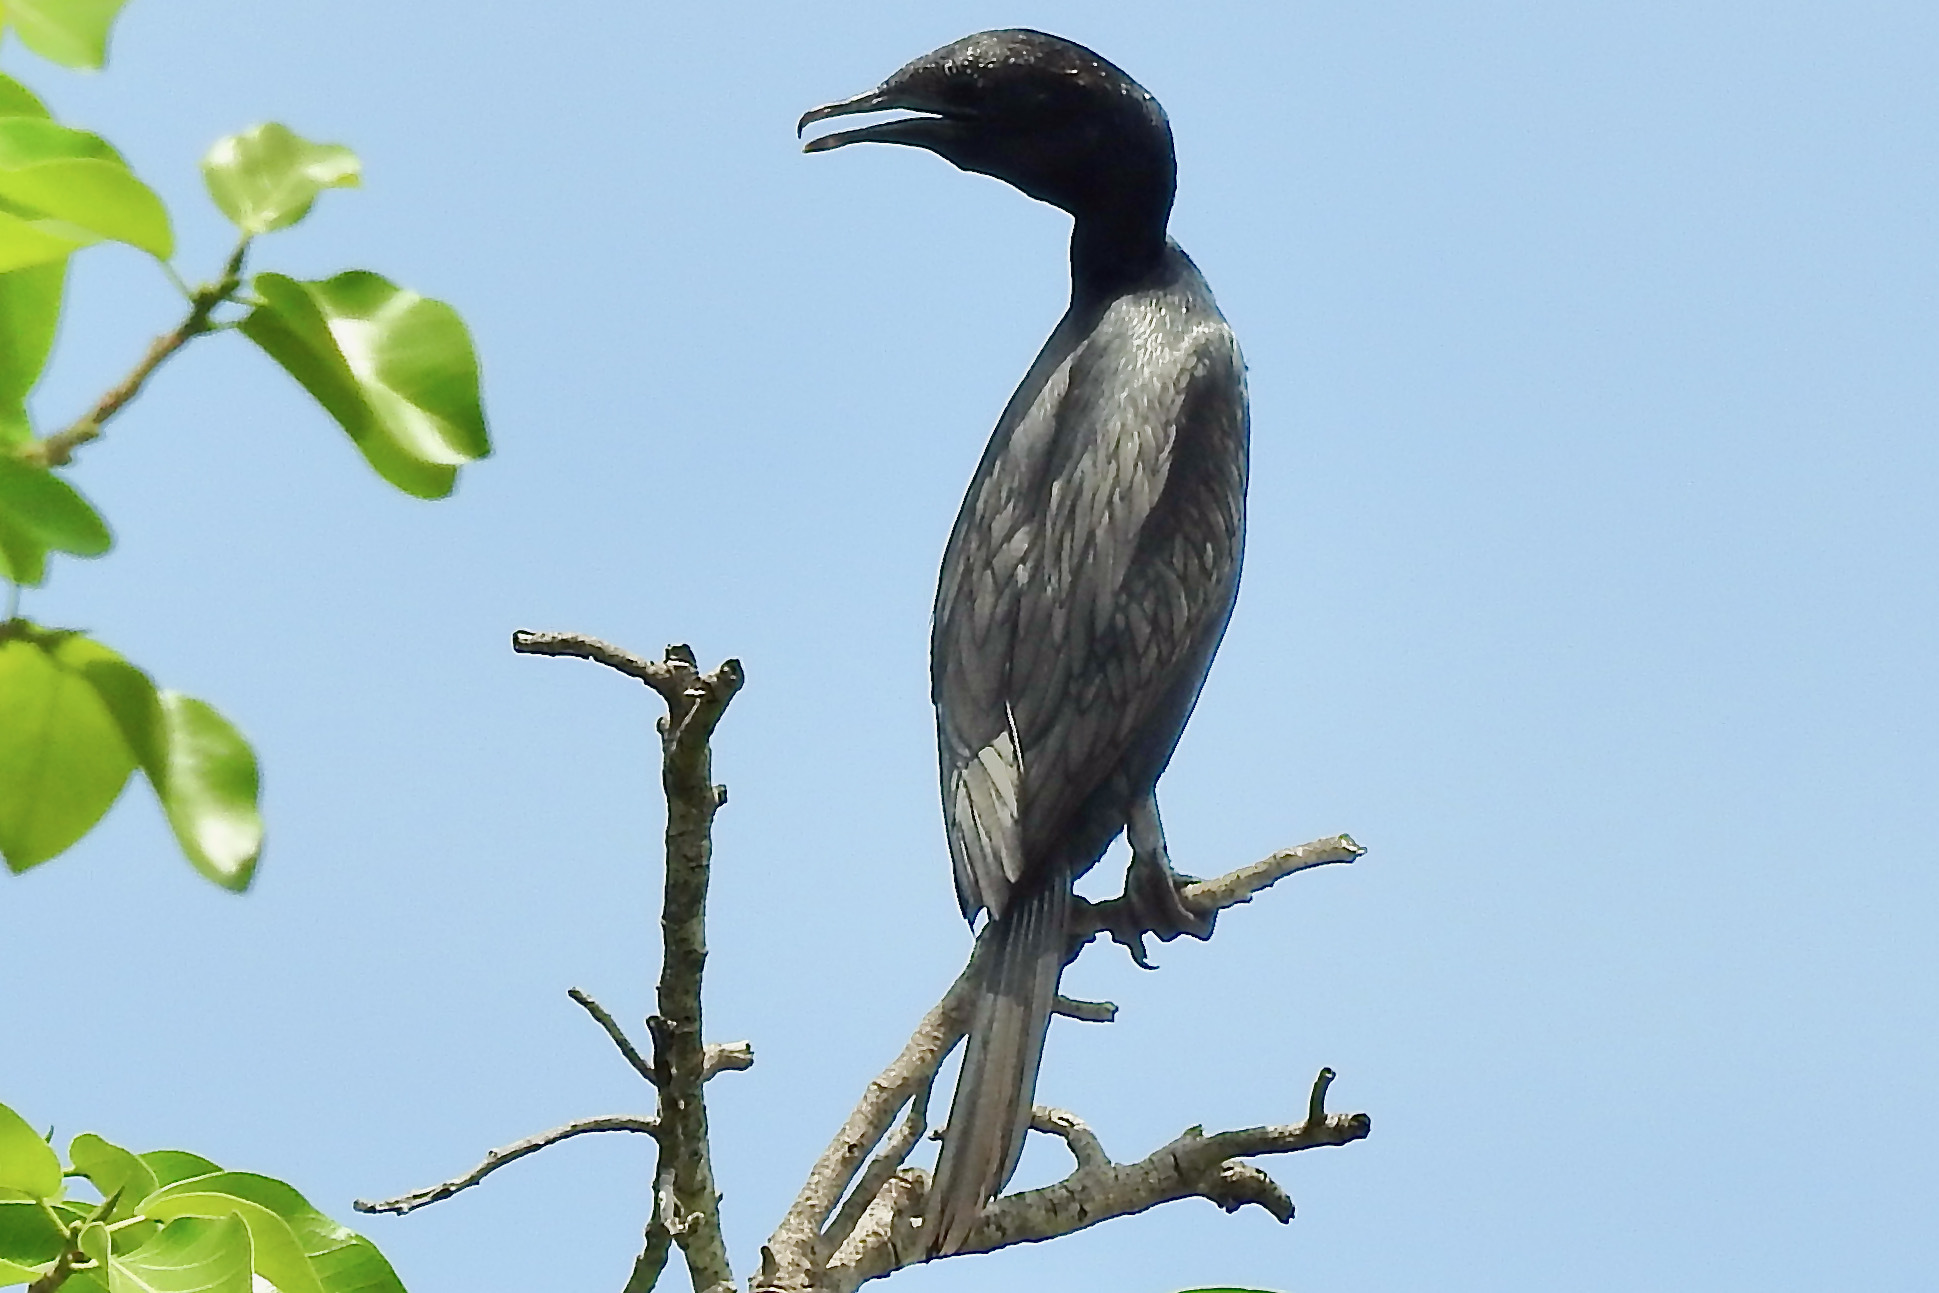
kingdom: Animalia
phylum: Chordata
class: Aves
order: Suliformes
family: Phalacrocoracidae
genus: Microcarbo
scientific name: Microcarbo niger
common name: Little cormorant
